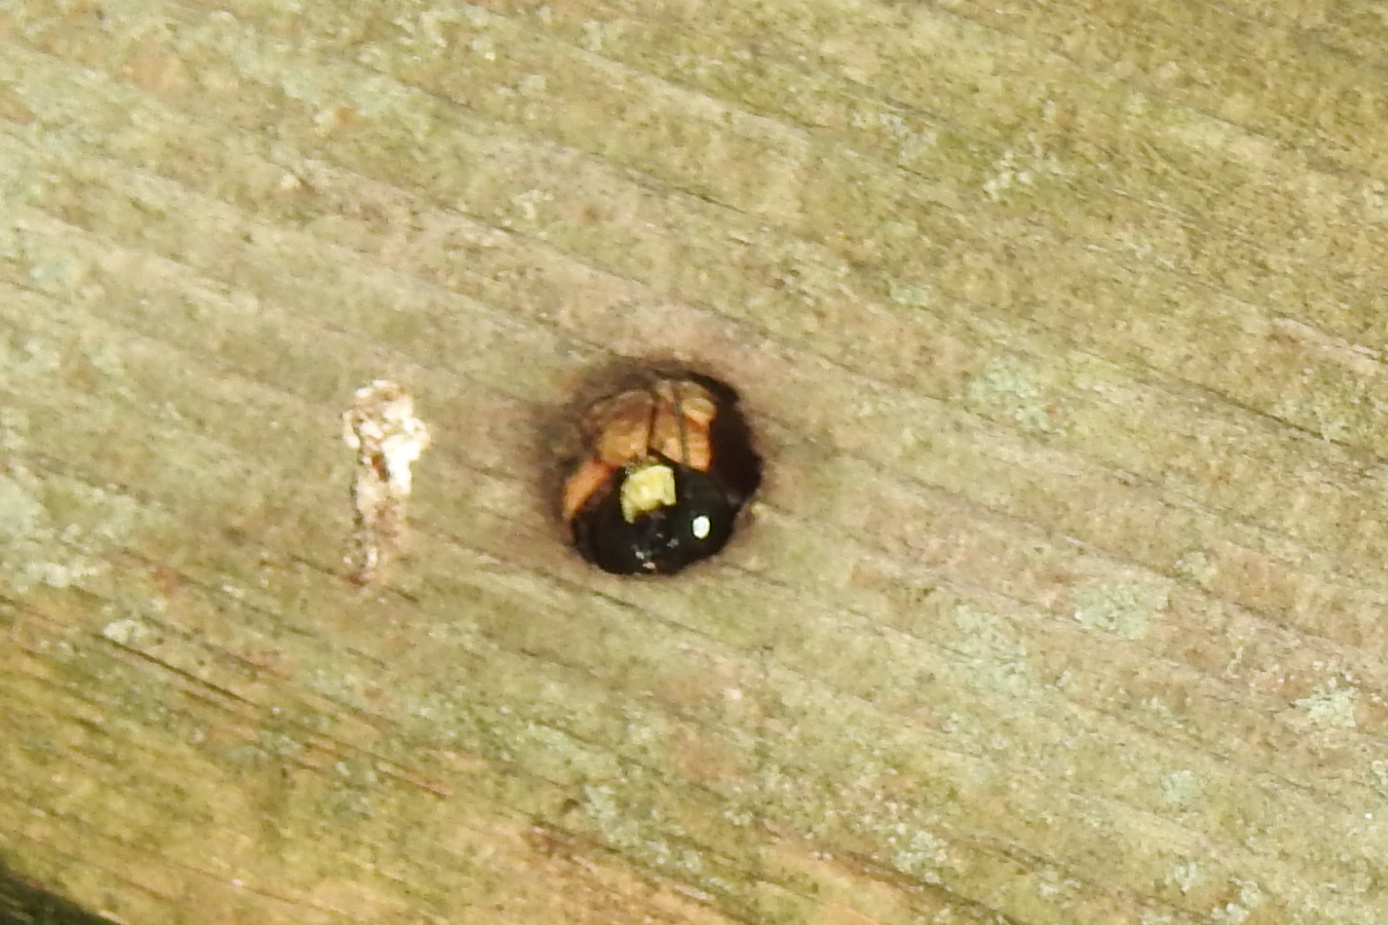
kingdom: Animalia
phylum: Arthropoda
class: Insecta
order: Hymenoptera
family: Apidae
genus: Xylocopa
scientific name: Xylocopa virginica
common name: Carpenter bee
